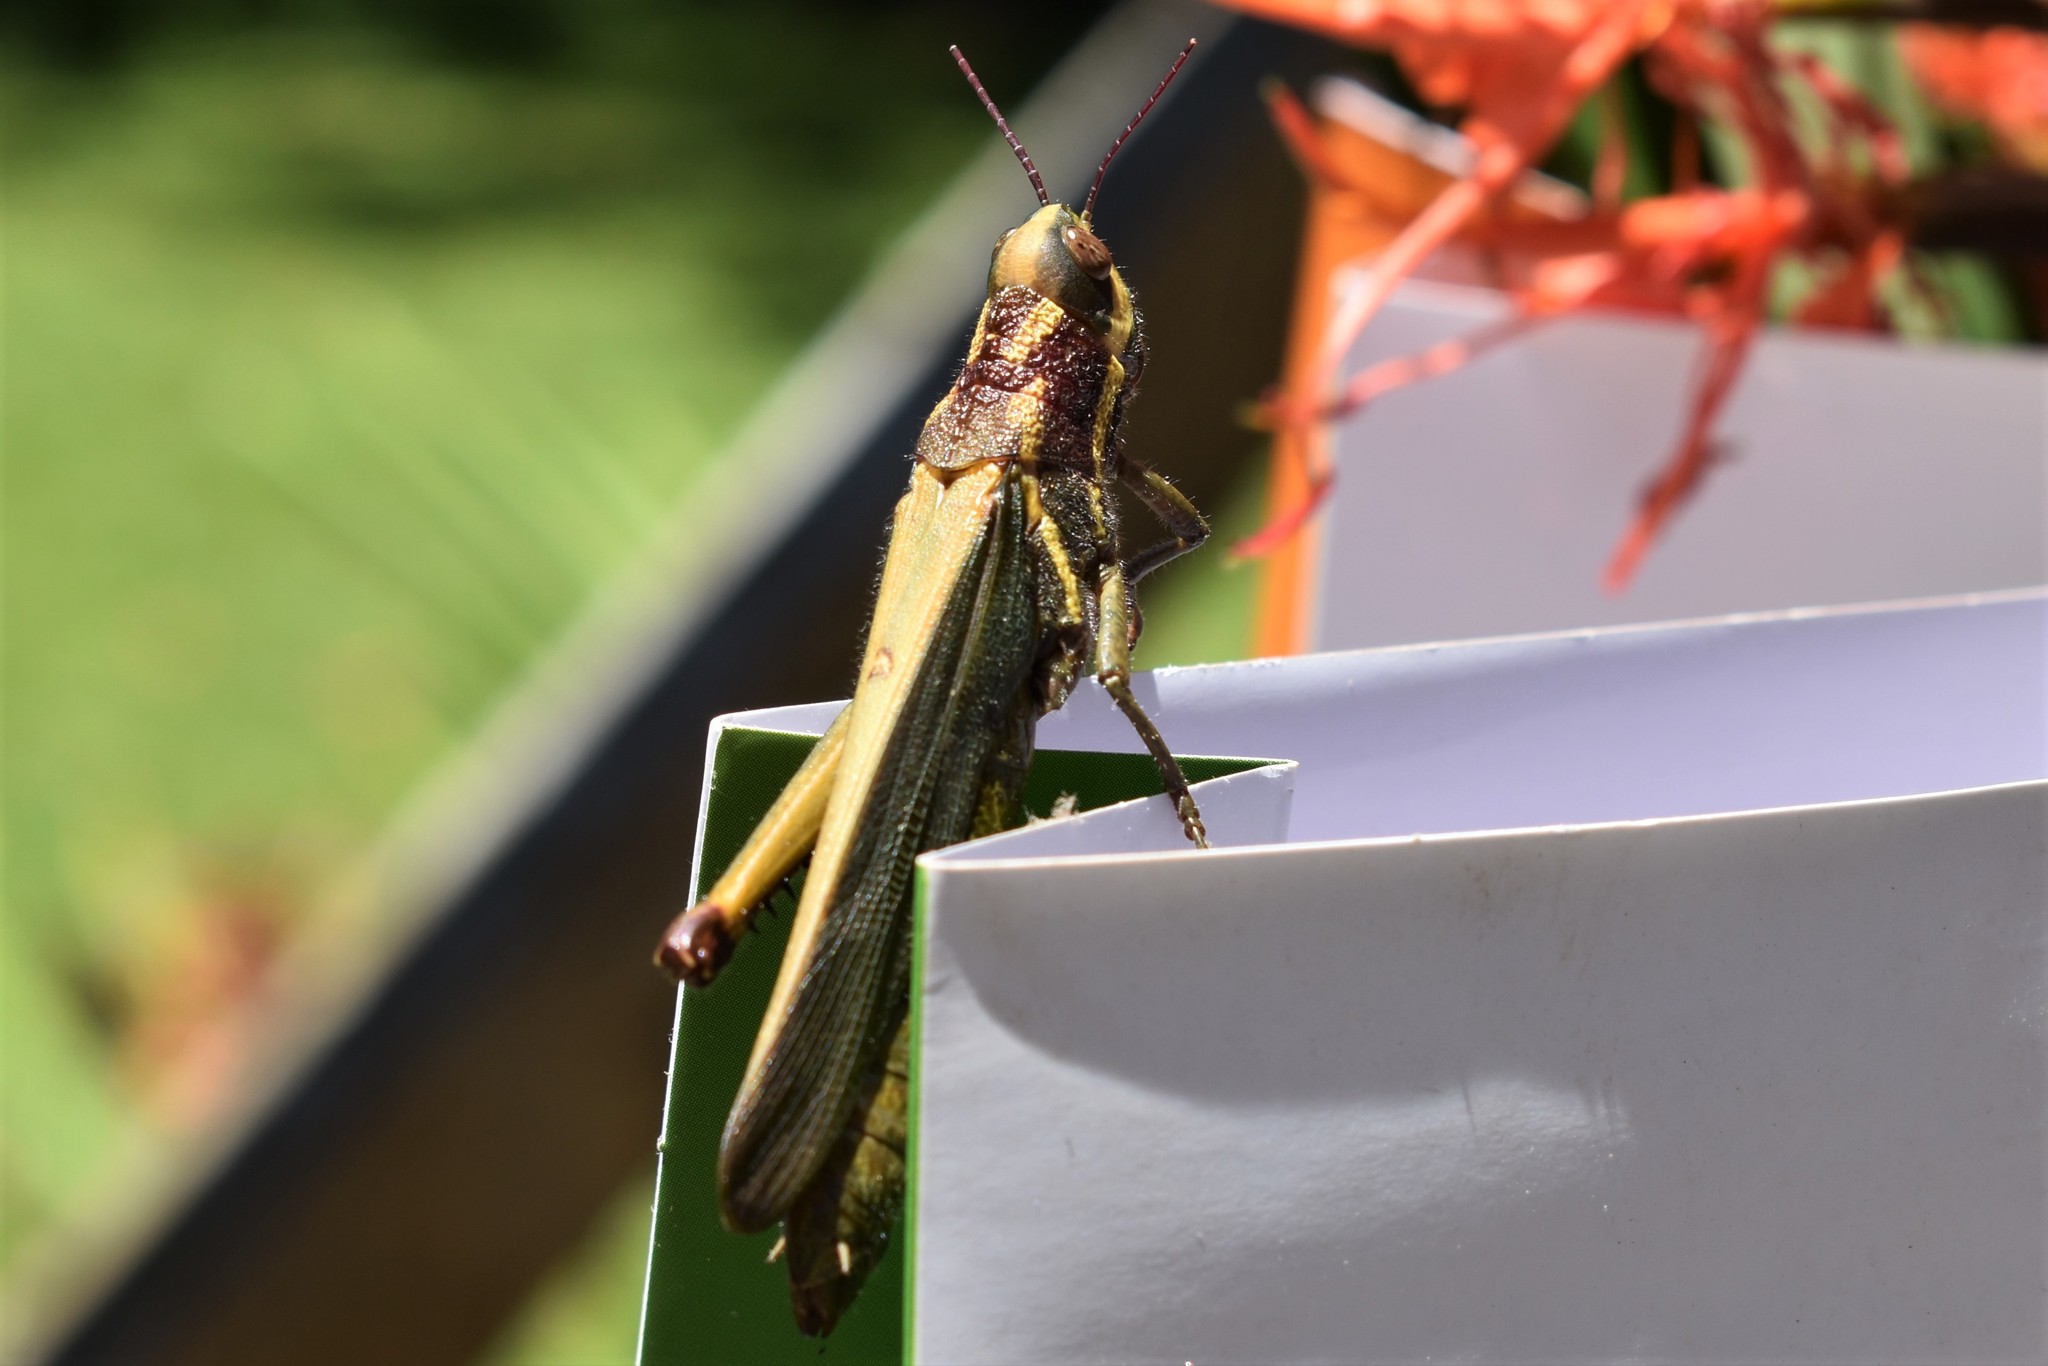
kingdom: Animalia
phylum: Arthropoda
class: Insecta
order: Orthoptera
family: Acrididae
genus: Zygoclistron
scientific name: Zygoclistron superbum
